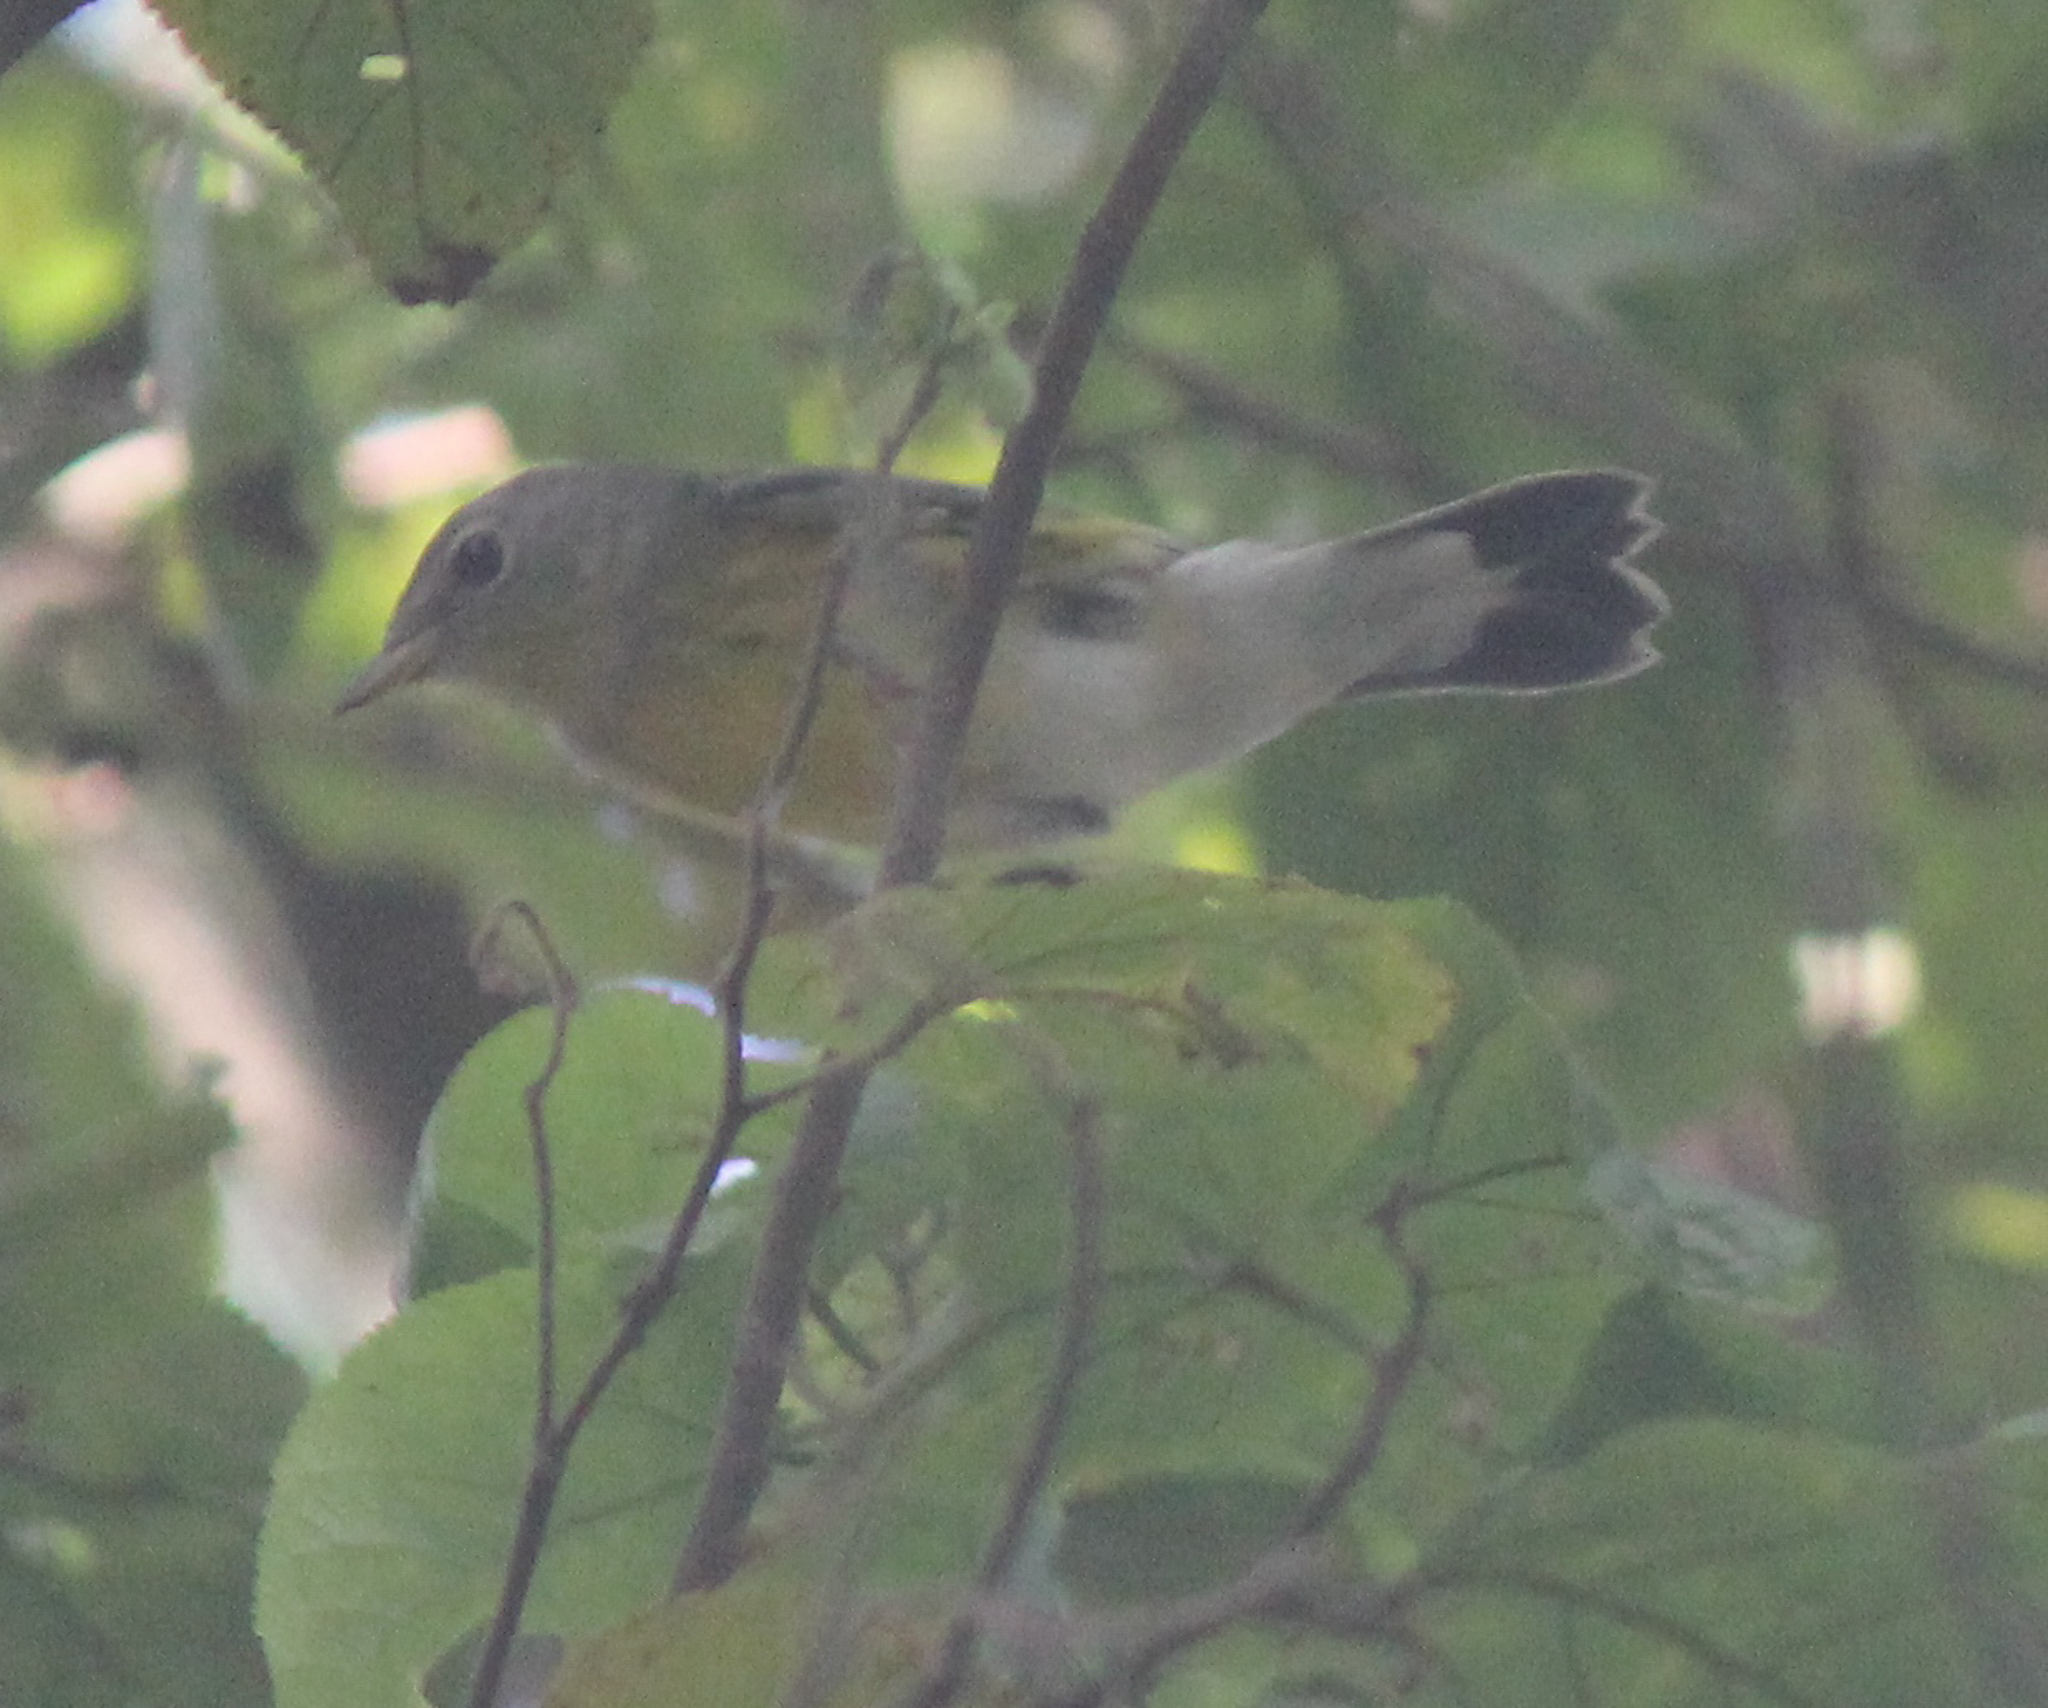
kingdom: Animalia
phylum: Chordata
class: Aves
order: Passeriformes
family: Parulidae
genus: Setophaga
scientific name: Setophaga magnolia
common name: Magnolia warbler
